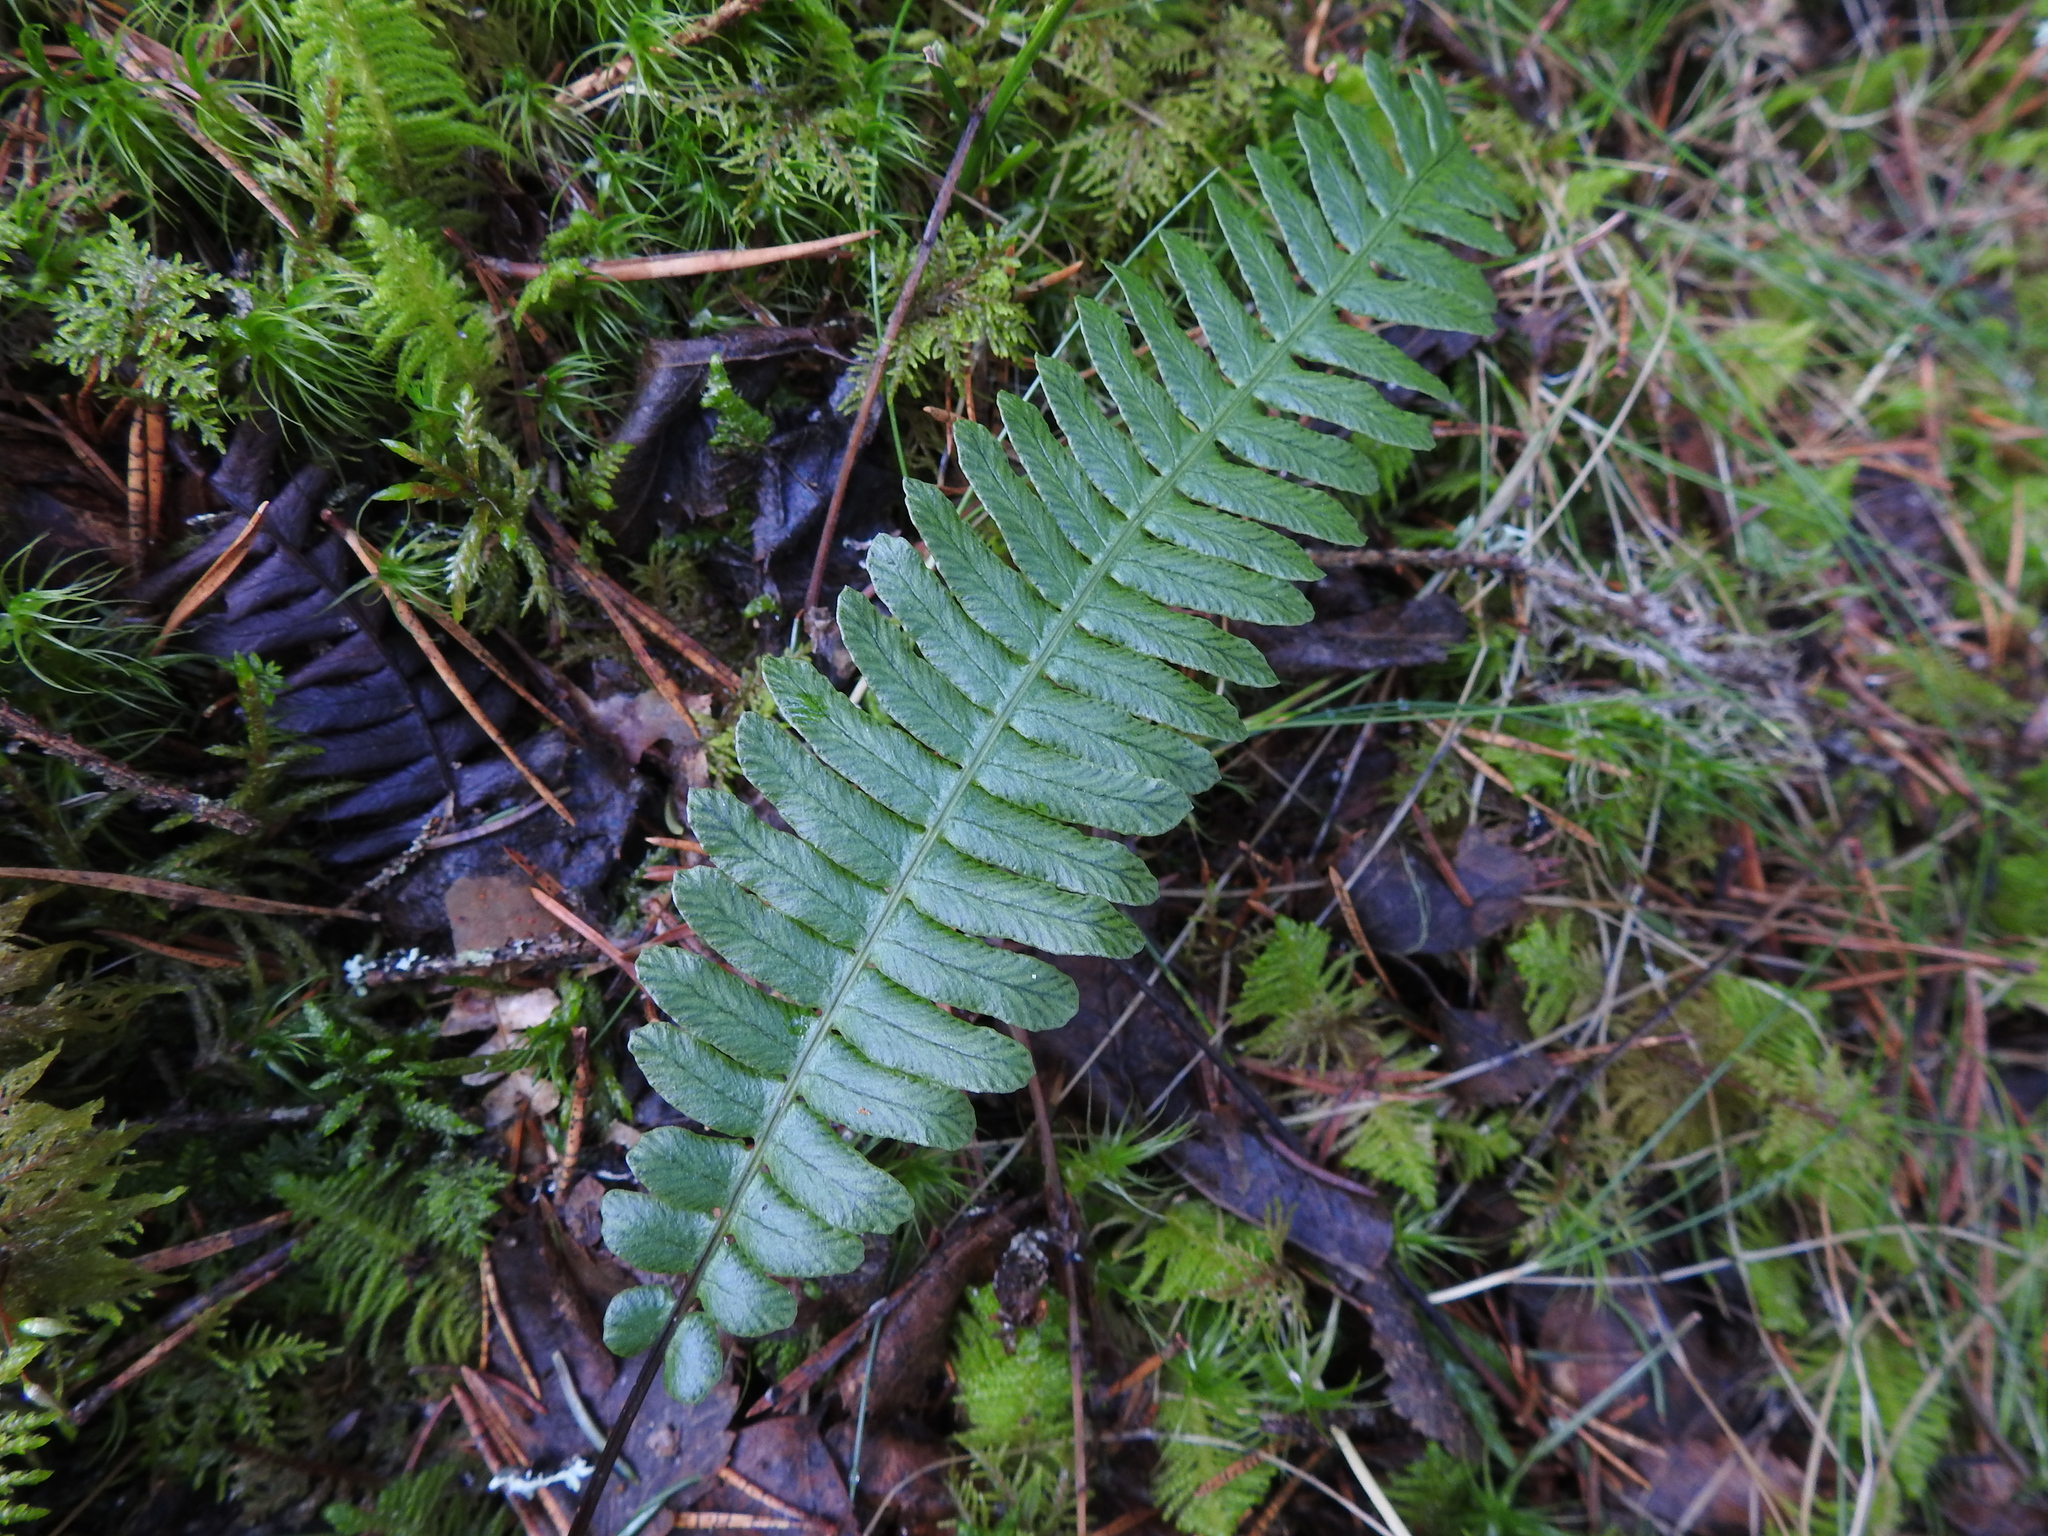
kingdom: Plantae
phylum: Tracheophyta
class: Polypodiopsida
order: Polypodiales
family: Blechnaceae
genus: Struthiopteris
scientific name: Struthiopteris spicant
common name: Deer fern
